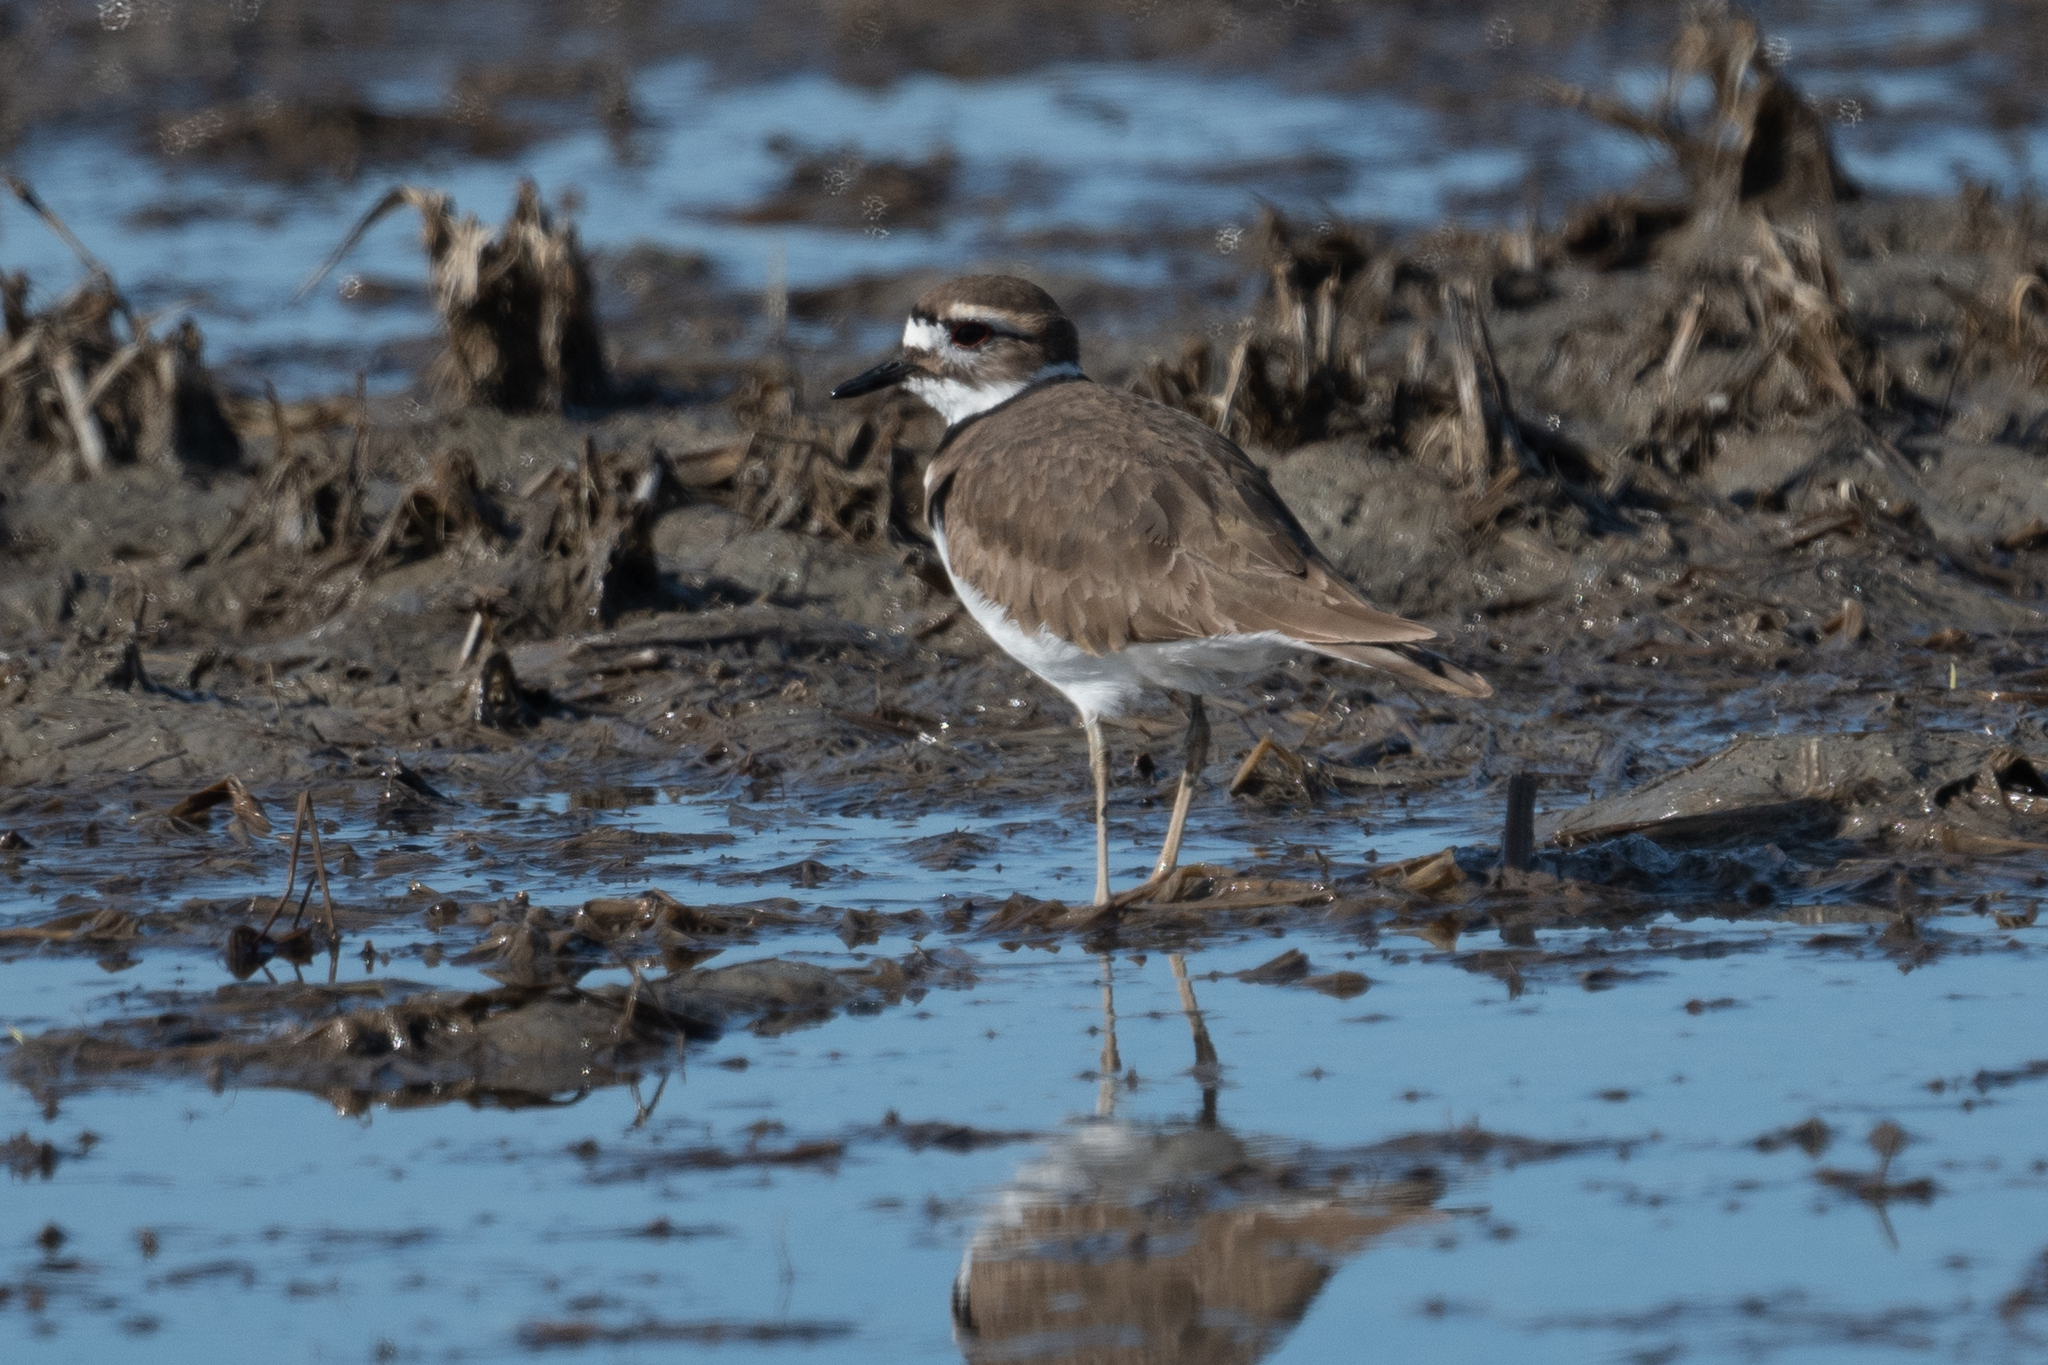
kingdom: Animalia
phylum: Chordata
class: Aves
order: Charadriiformes
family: Charadriidae
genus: Charadrius
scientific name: Charadrius vociferus
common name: Killdeer
